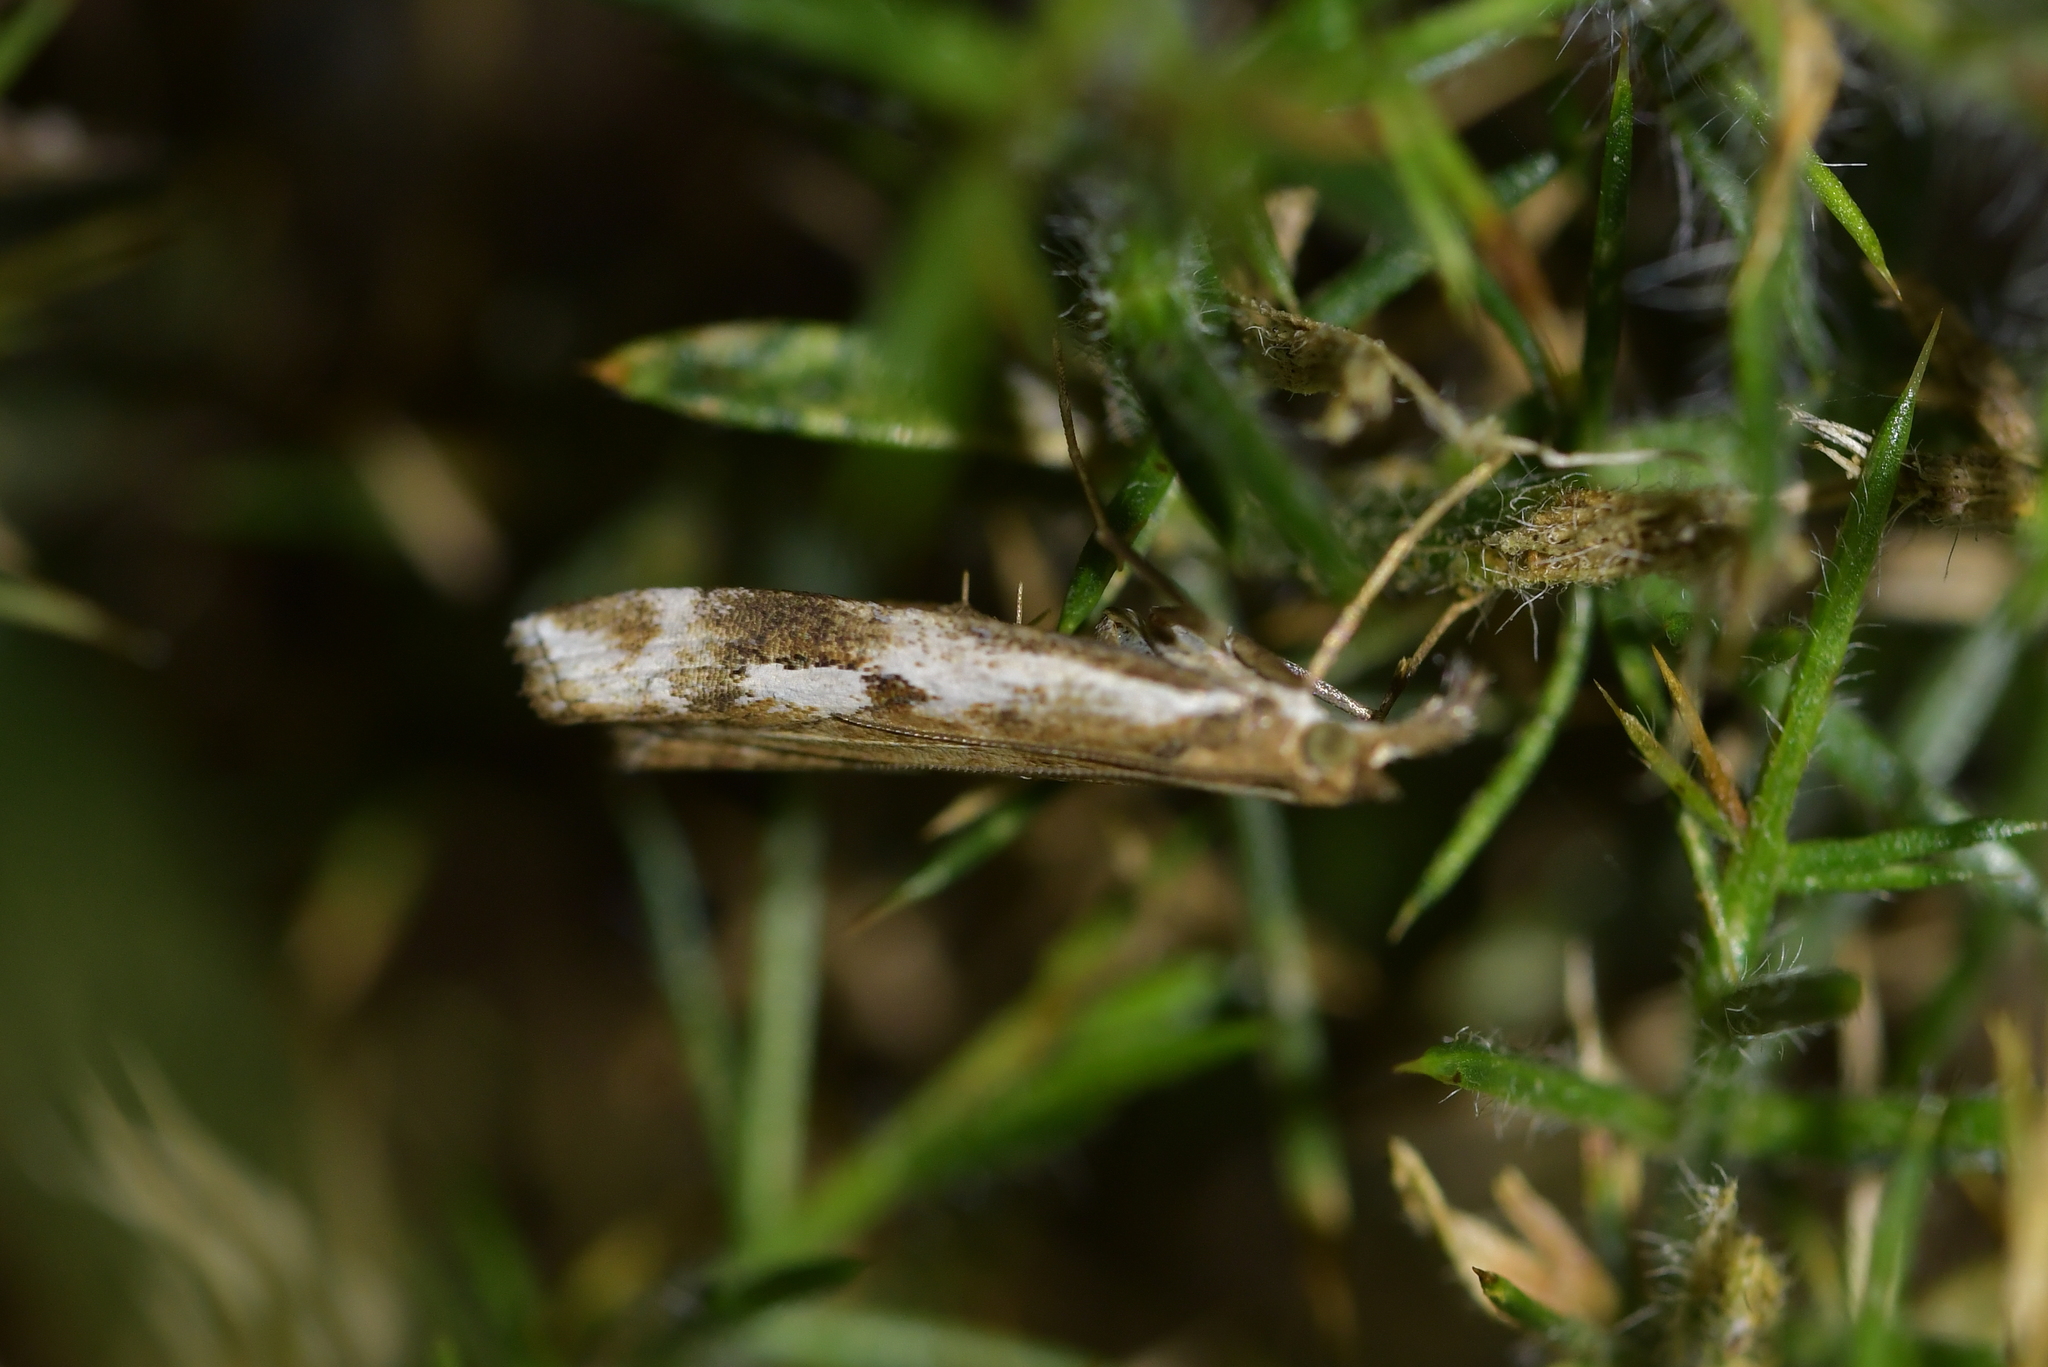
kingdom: Animalia
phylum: Arthropoda
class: Insecta
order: Lepidoptera
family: Crambidae
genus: Orocrambus
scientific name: Orocrambus vulgaris
